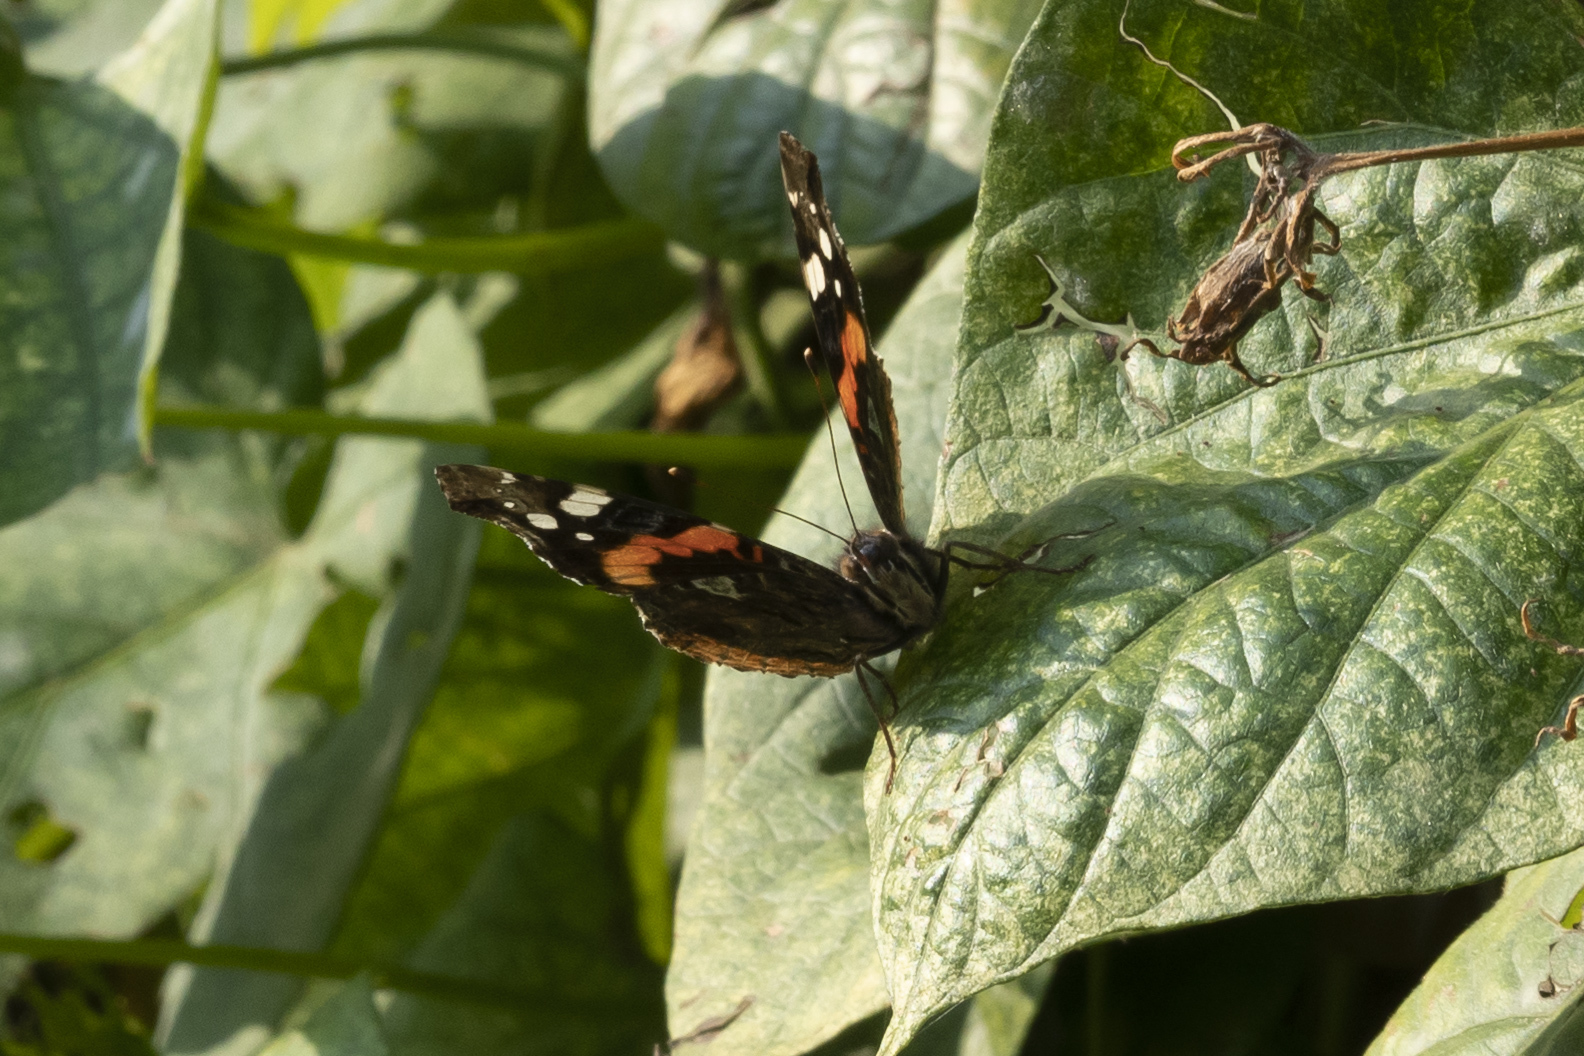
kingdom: Animalia
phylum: Arthropoda
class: Insecta
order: Lepidoptera
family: Nymphalidae
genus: Vanessa
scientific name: Vanessa atalanta
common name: Red admiral
